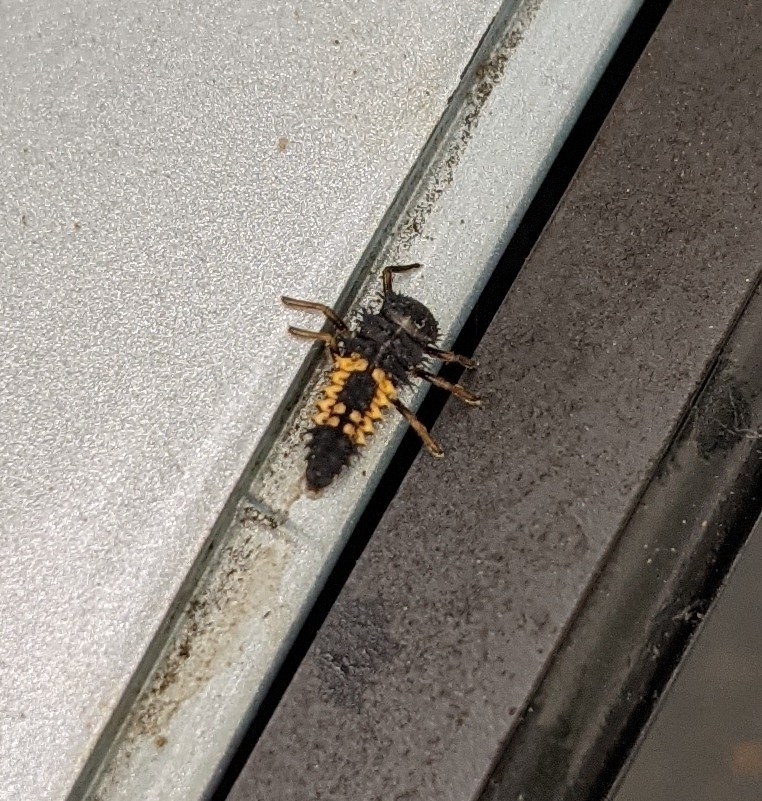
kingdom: Animalia
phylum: Arthropoda
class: Insecta
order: Coleoptera
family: Coccinellidae
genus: Harmonia
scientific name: Harmonia axyridis
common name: Harlequin ladybird
